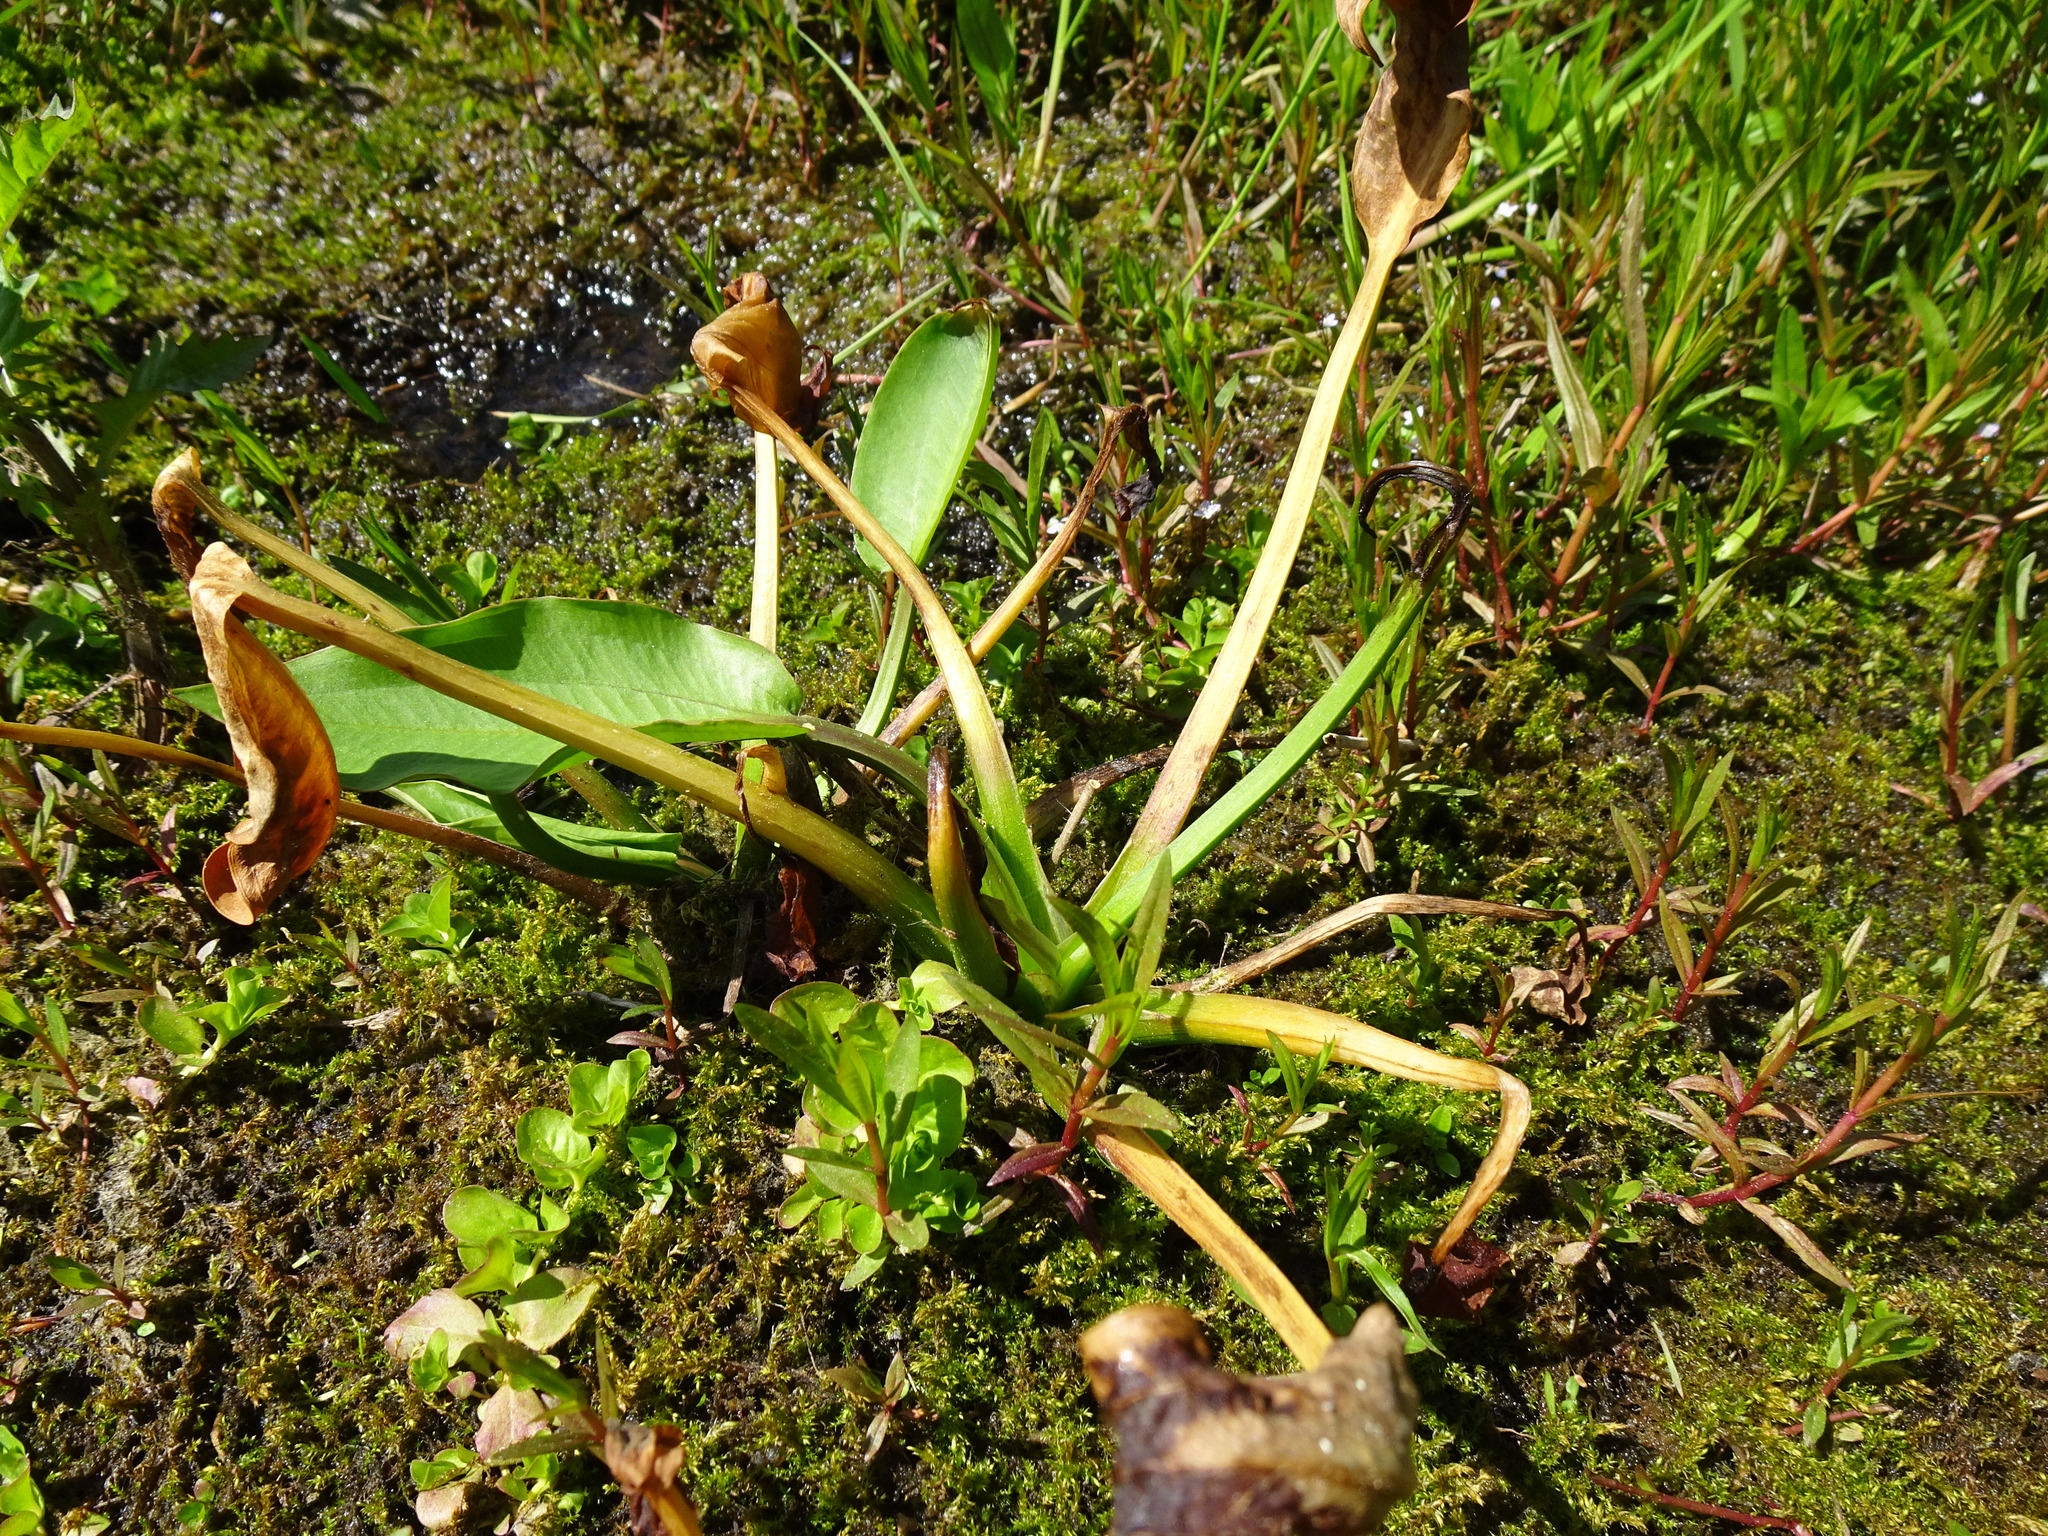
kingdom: Plantae
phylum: Tracheophyta
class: Liliopsida
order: Alismatales
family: Alismataceae
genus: Alisma
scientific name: Alisma plantago-aquatica
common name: Water-plantain
